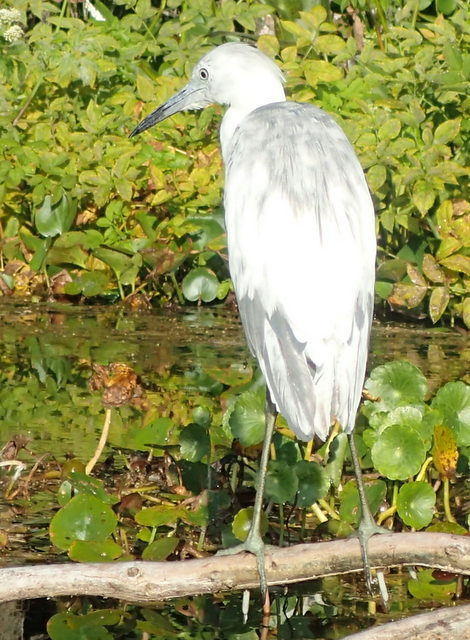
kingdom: Animalia
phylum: Chordata
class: Aves
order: Pelecaniformes
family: Ardeidae
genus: Egretta
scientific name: Egretta caerulea
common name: Little blue heron
